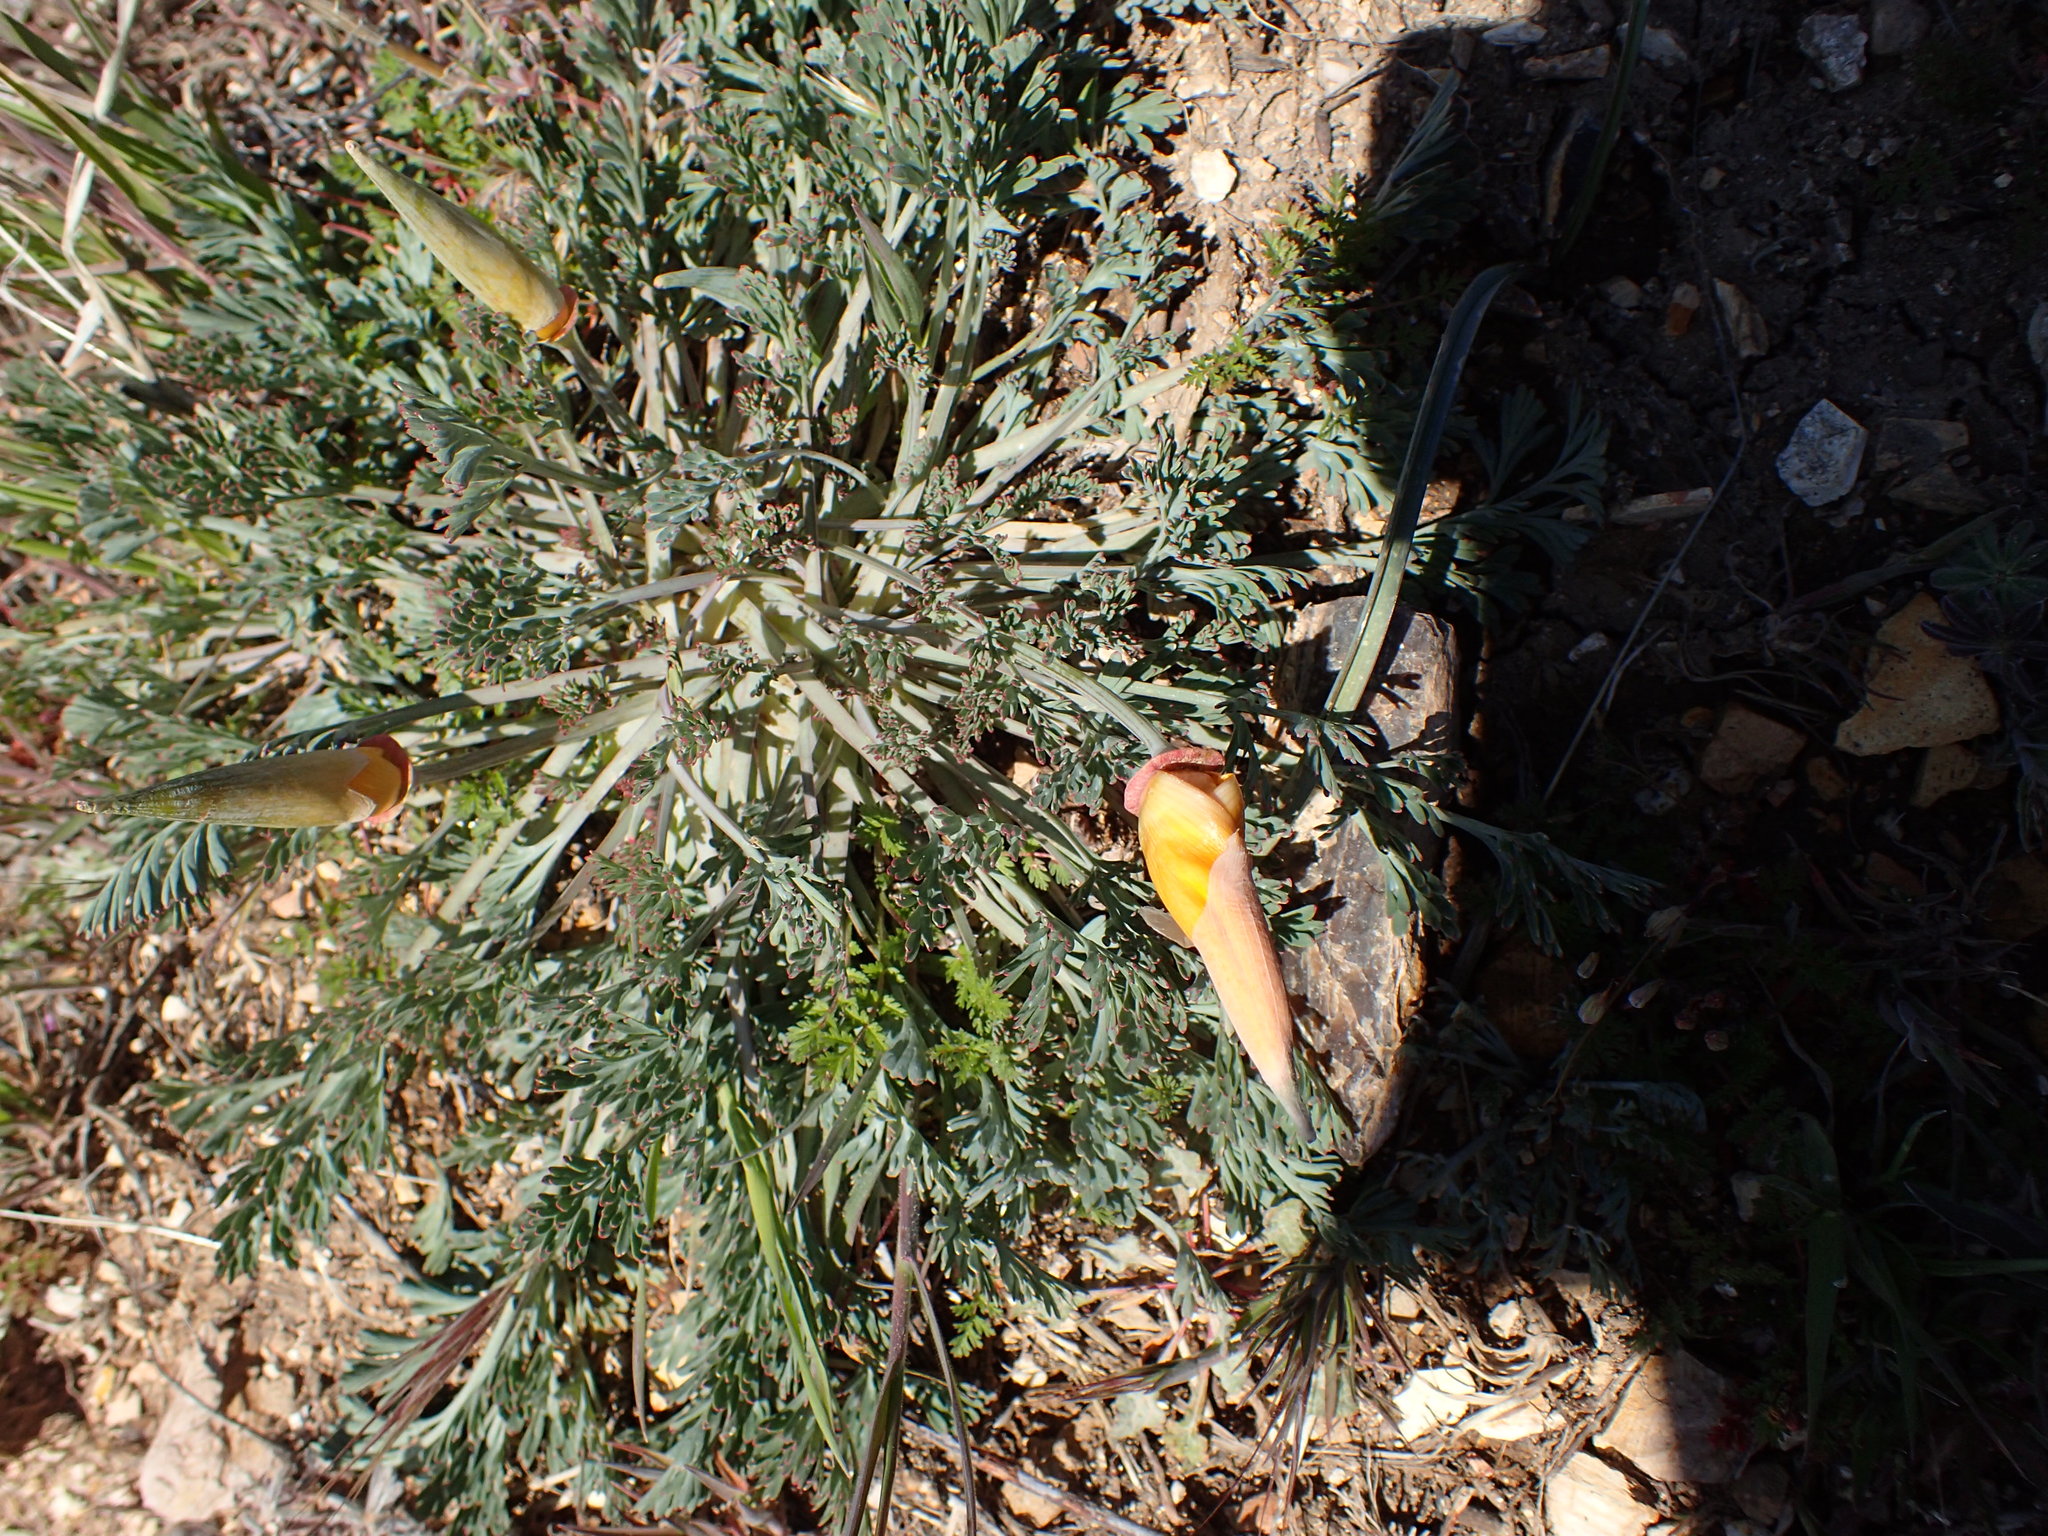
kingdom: Plantae
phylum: Tracheophyta
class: Magnoliopsida
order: Ranunculales
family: Papaveraceae
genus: Eschscholzia
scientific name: Eschscholzia californica
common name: California poppy
